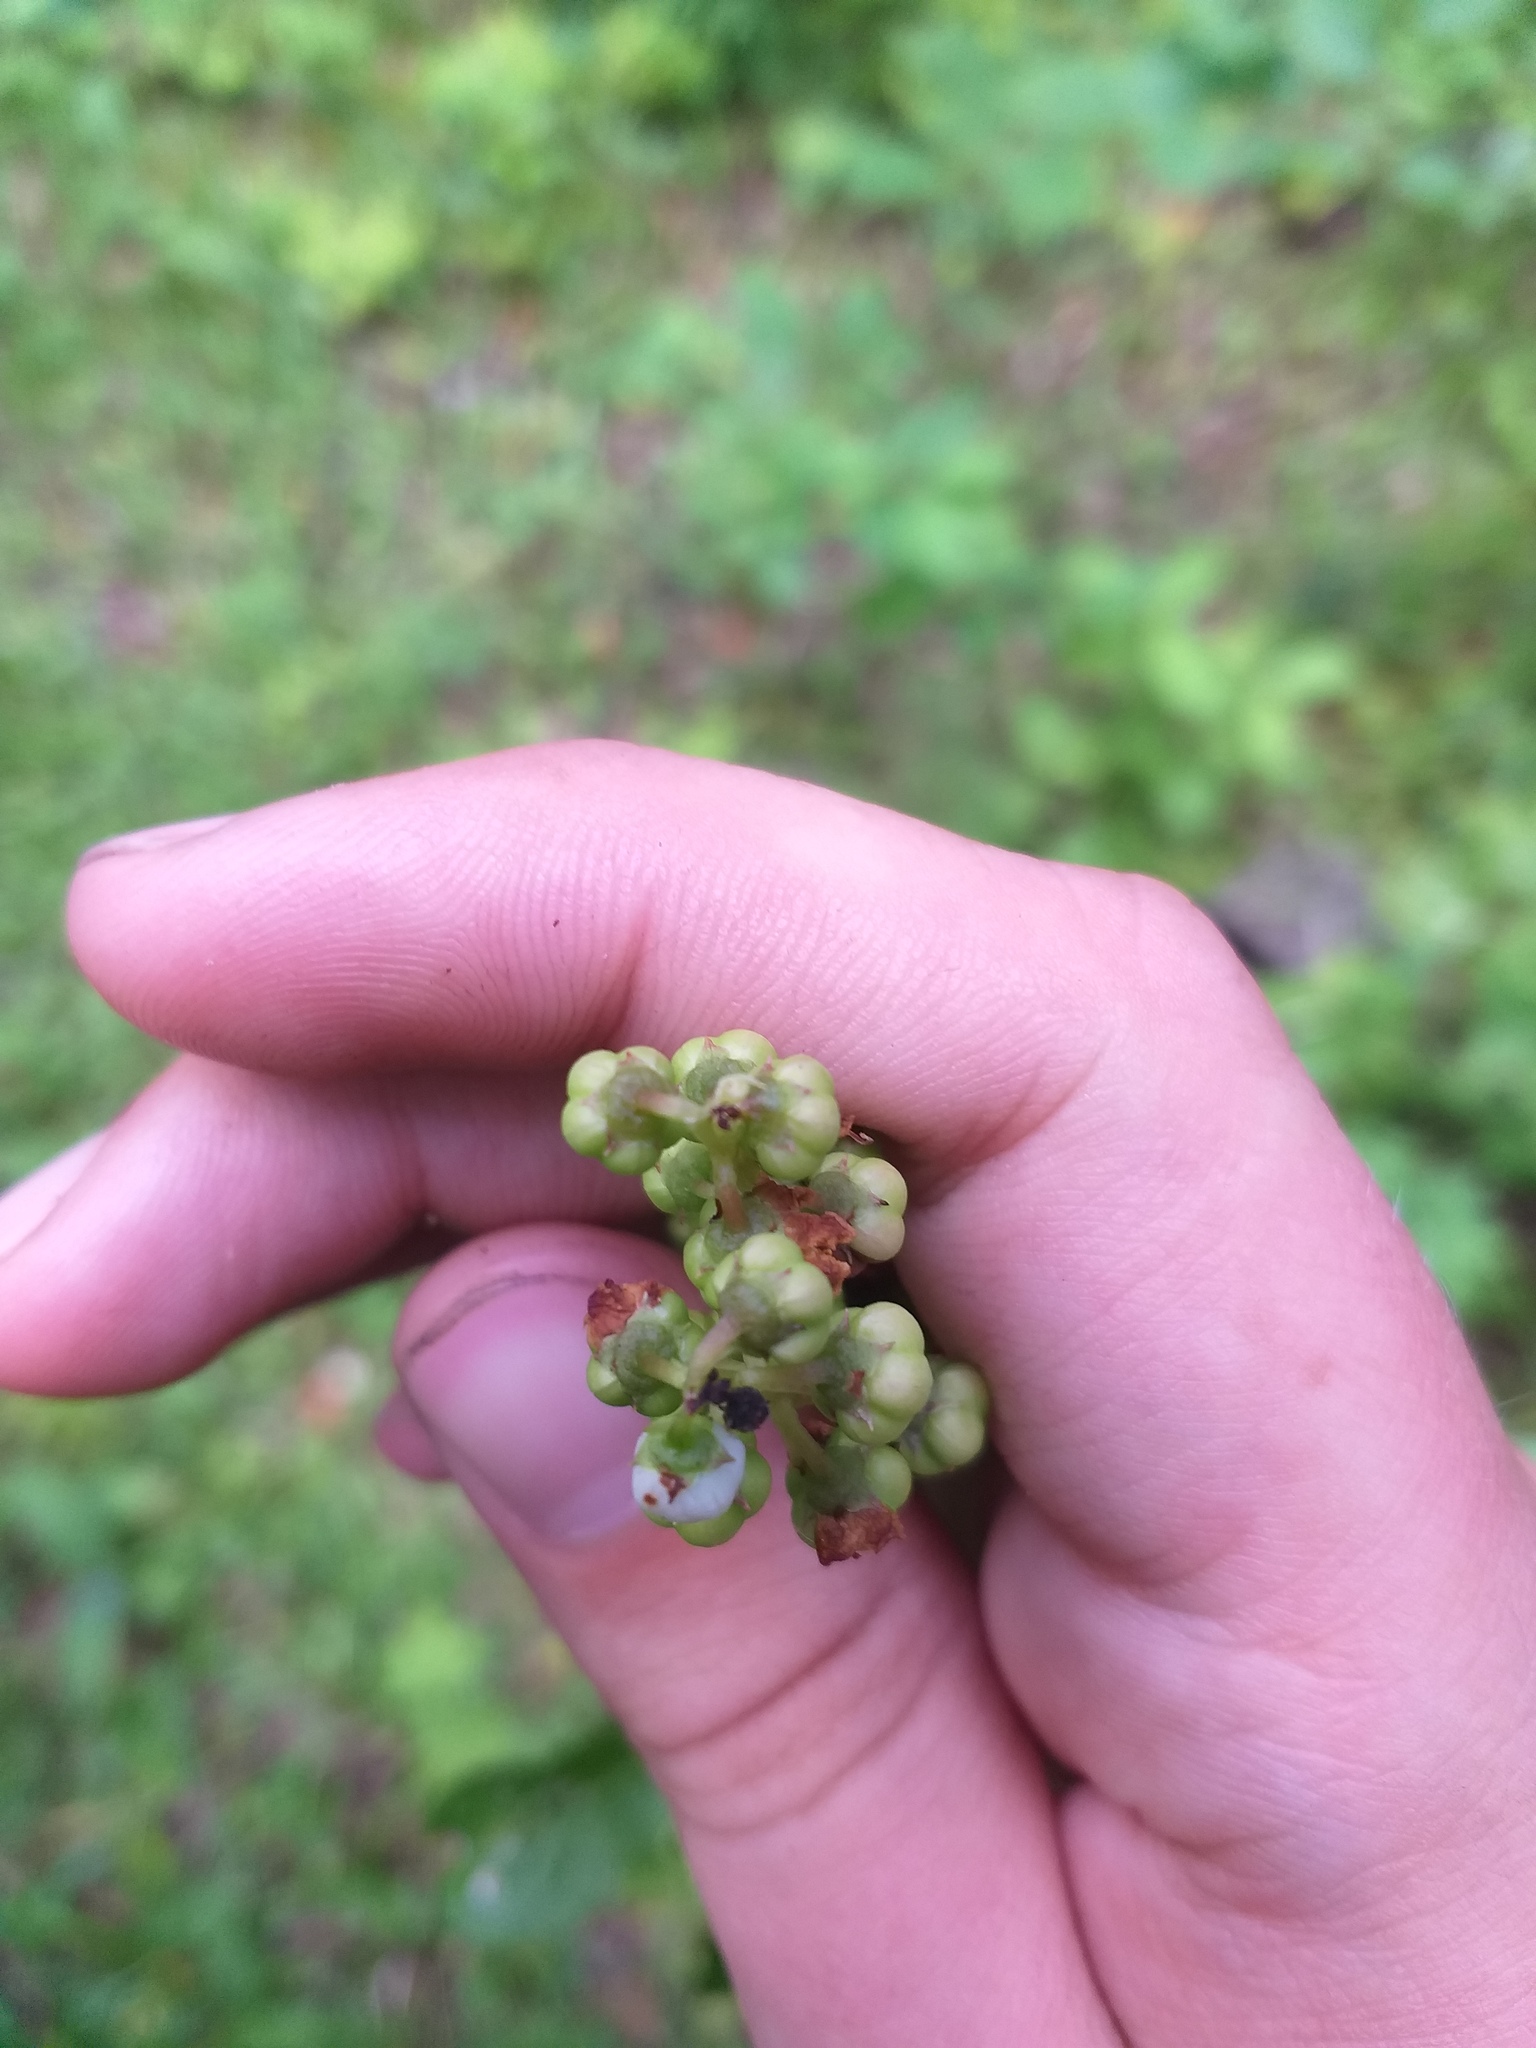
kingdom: Plantae
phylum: Tracheophyta
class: Magnoliopsida
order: Ericales
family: Ericaceae
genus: Pyrola
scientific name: Pyrola minor
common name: Common wintergreen
